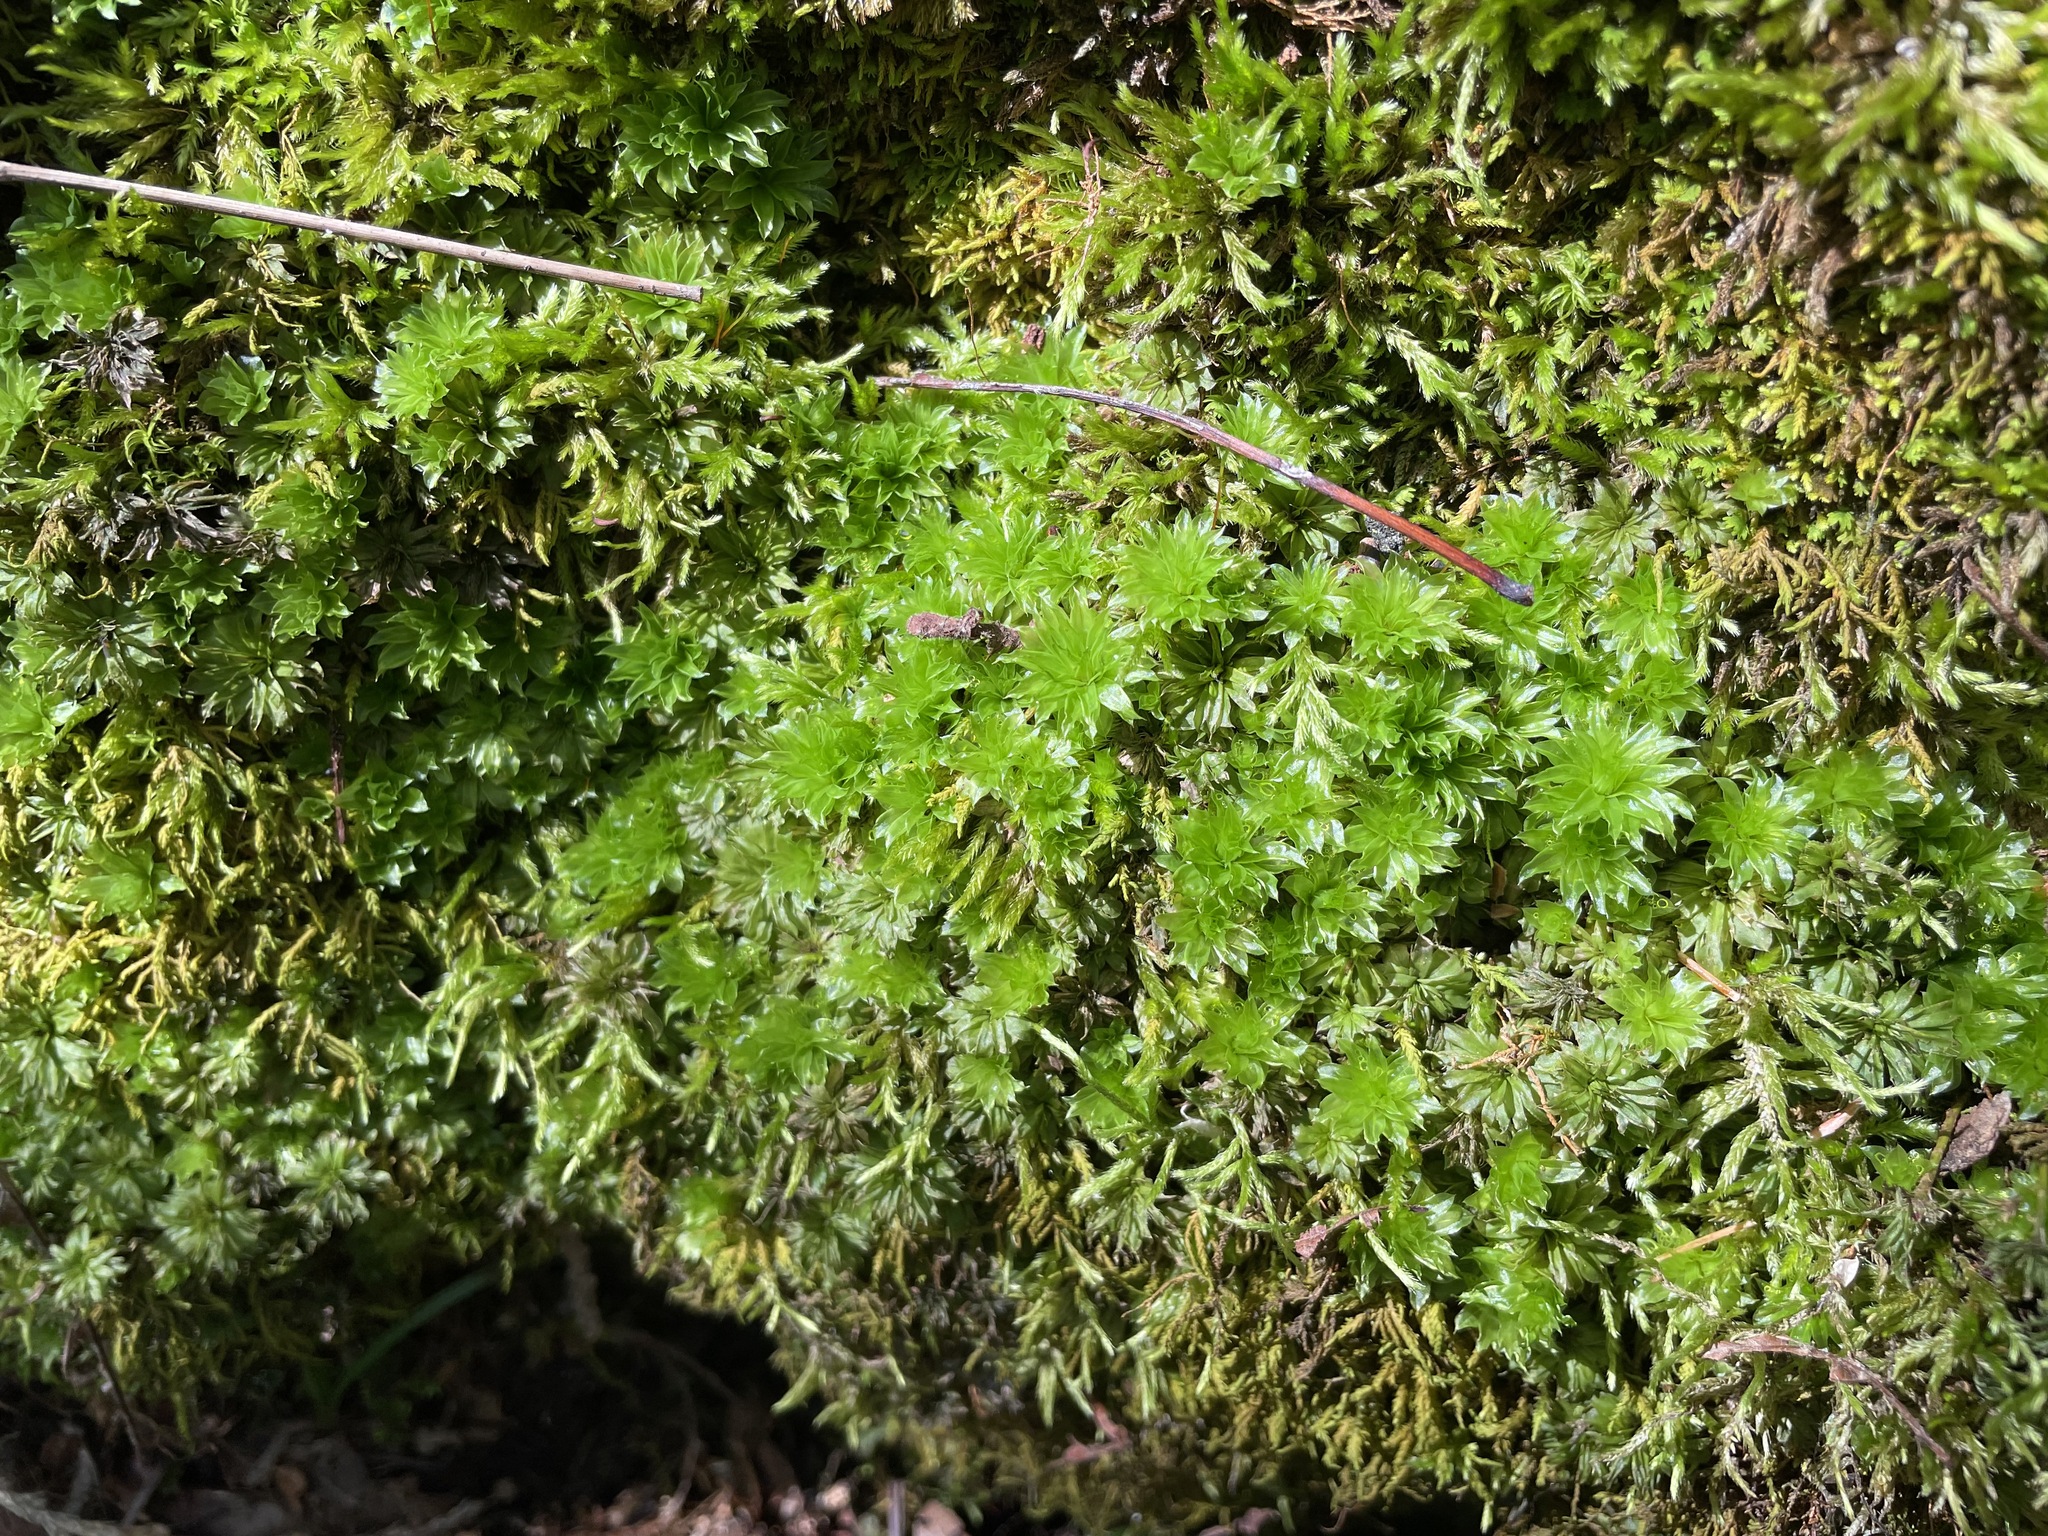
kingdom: Plantae
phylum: Bryophyta
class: Bryopsida
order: Bryales
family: Bryaceae
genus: Rhodobryum
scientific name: Rhodobryum ontariense
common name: Ontario rhodobryum moss
